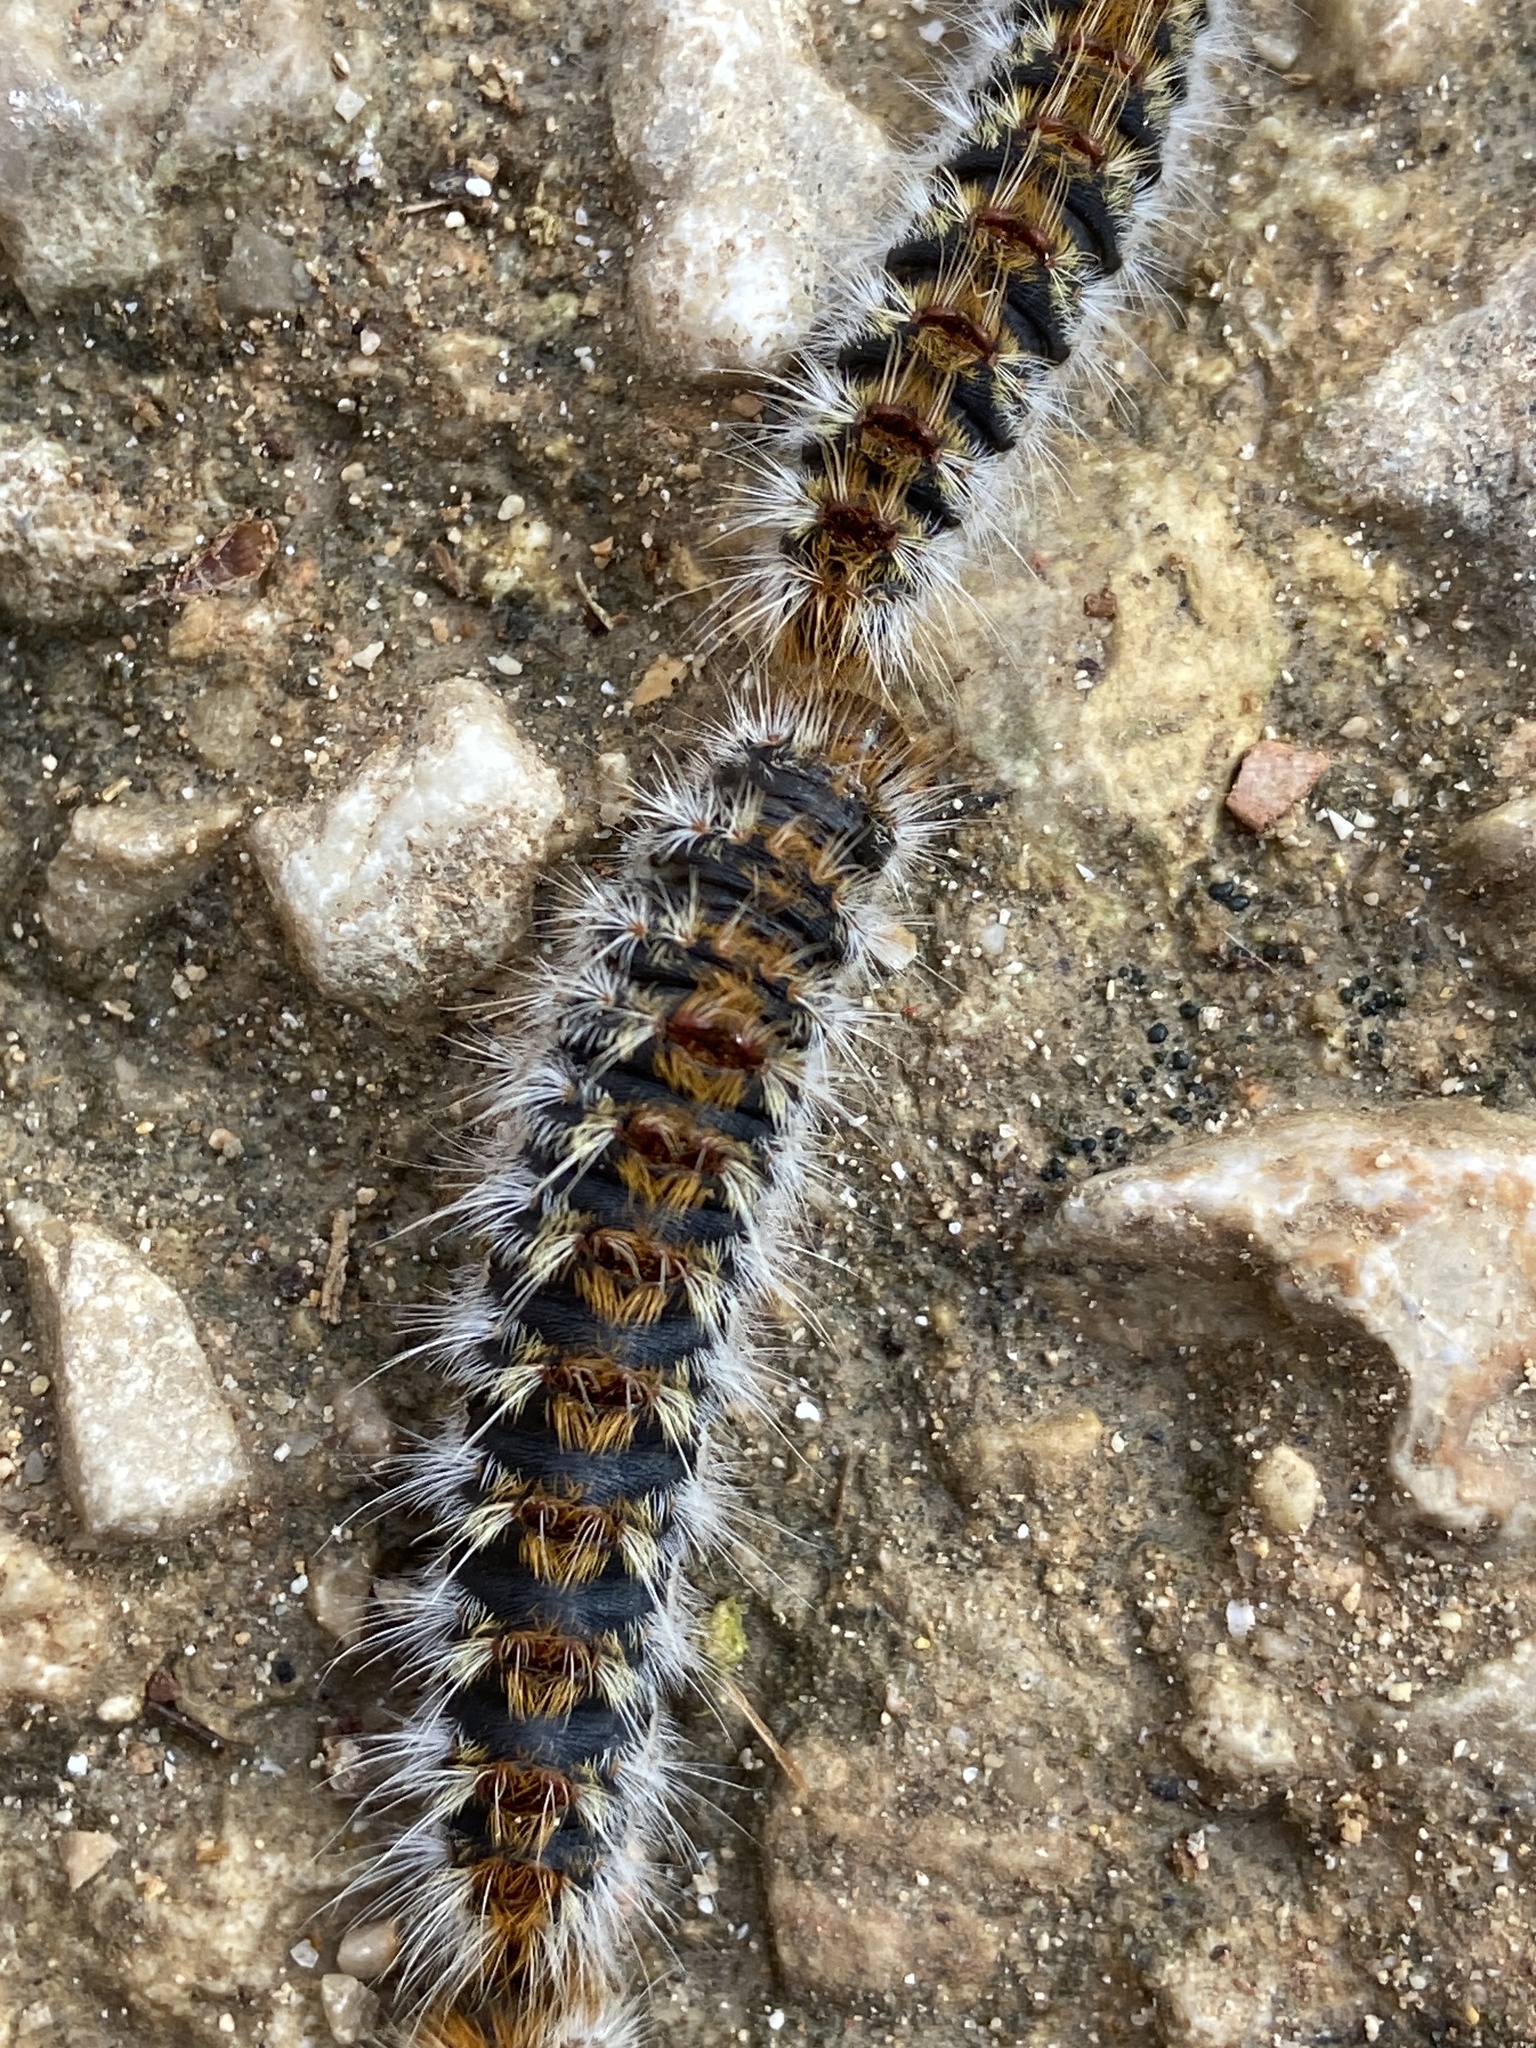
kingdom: Animalia
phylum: Arthropoda
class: Insecta
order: Lepidoptera
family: Notodontidae
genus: Thaumetopoea
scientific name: Thaumetopoea pityocampa
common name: Pine processionary
